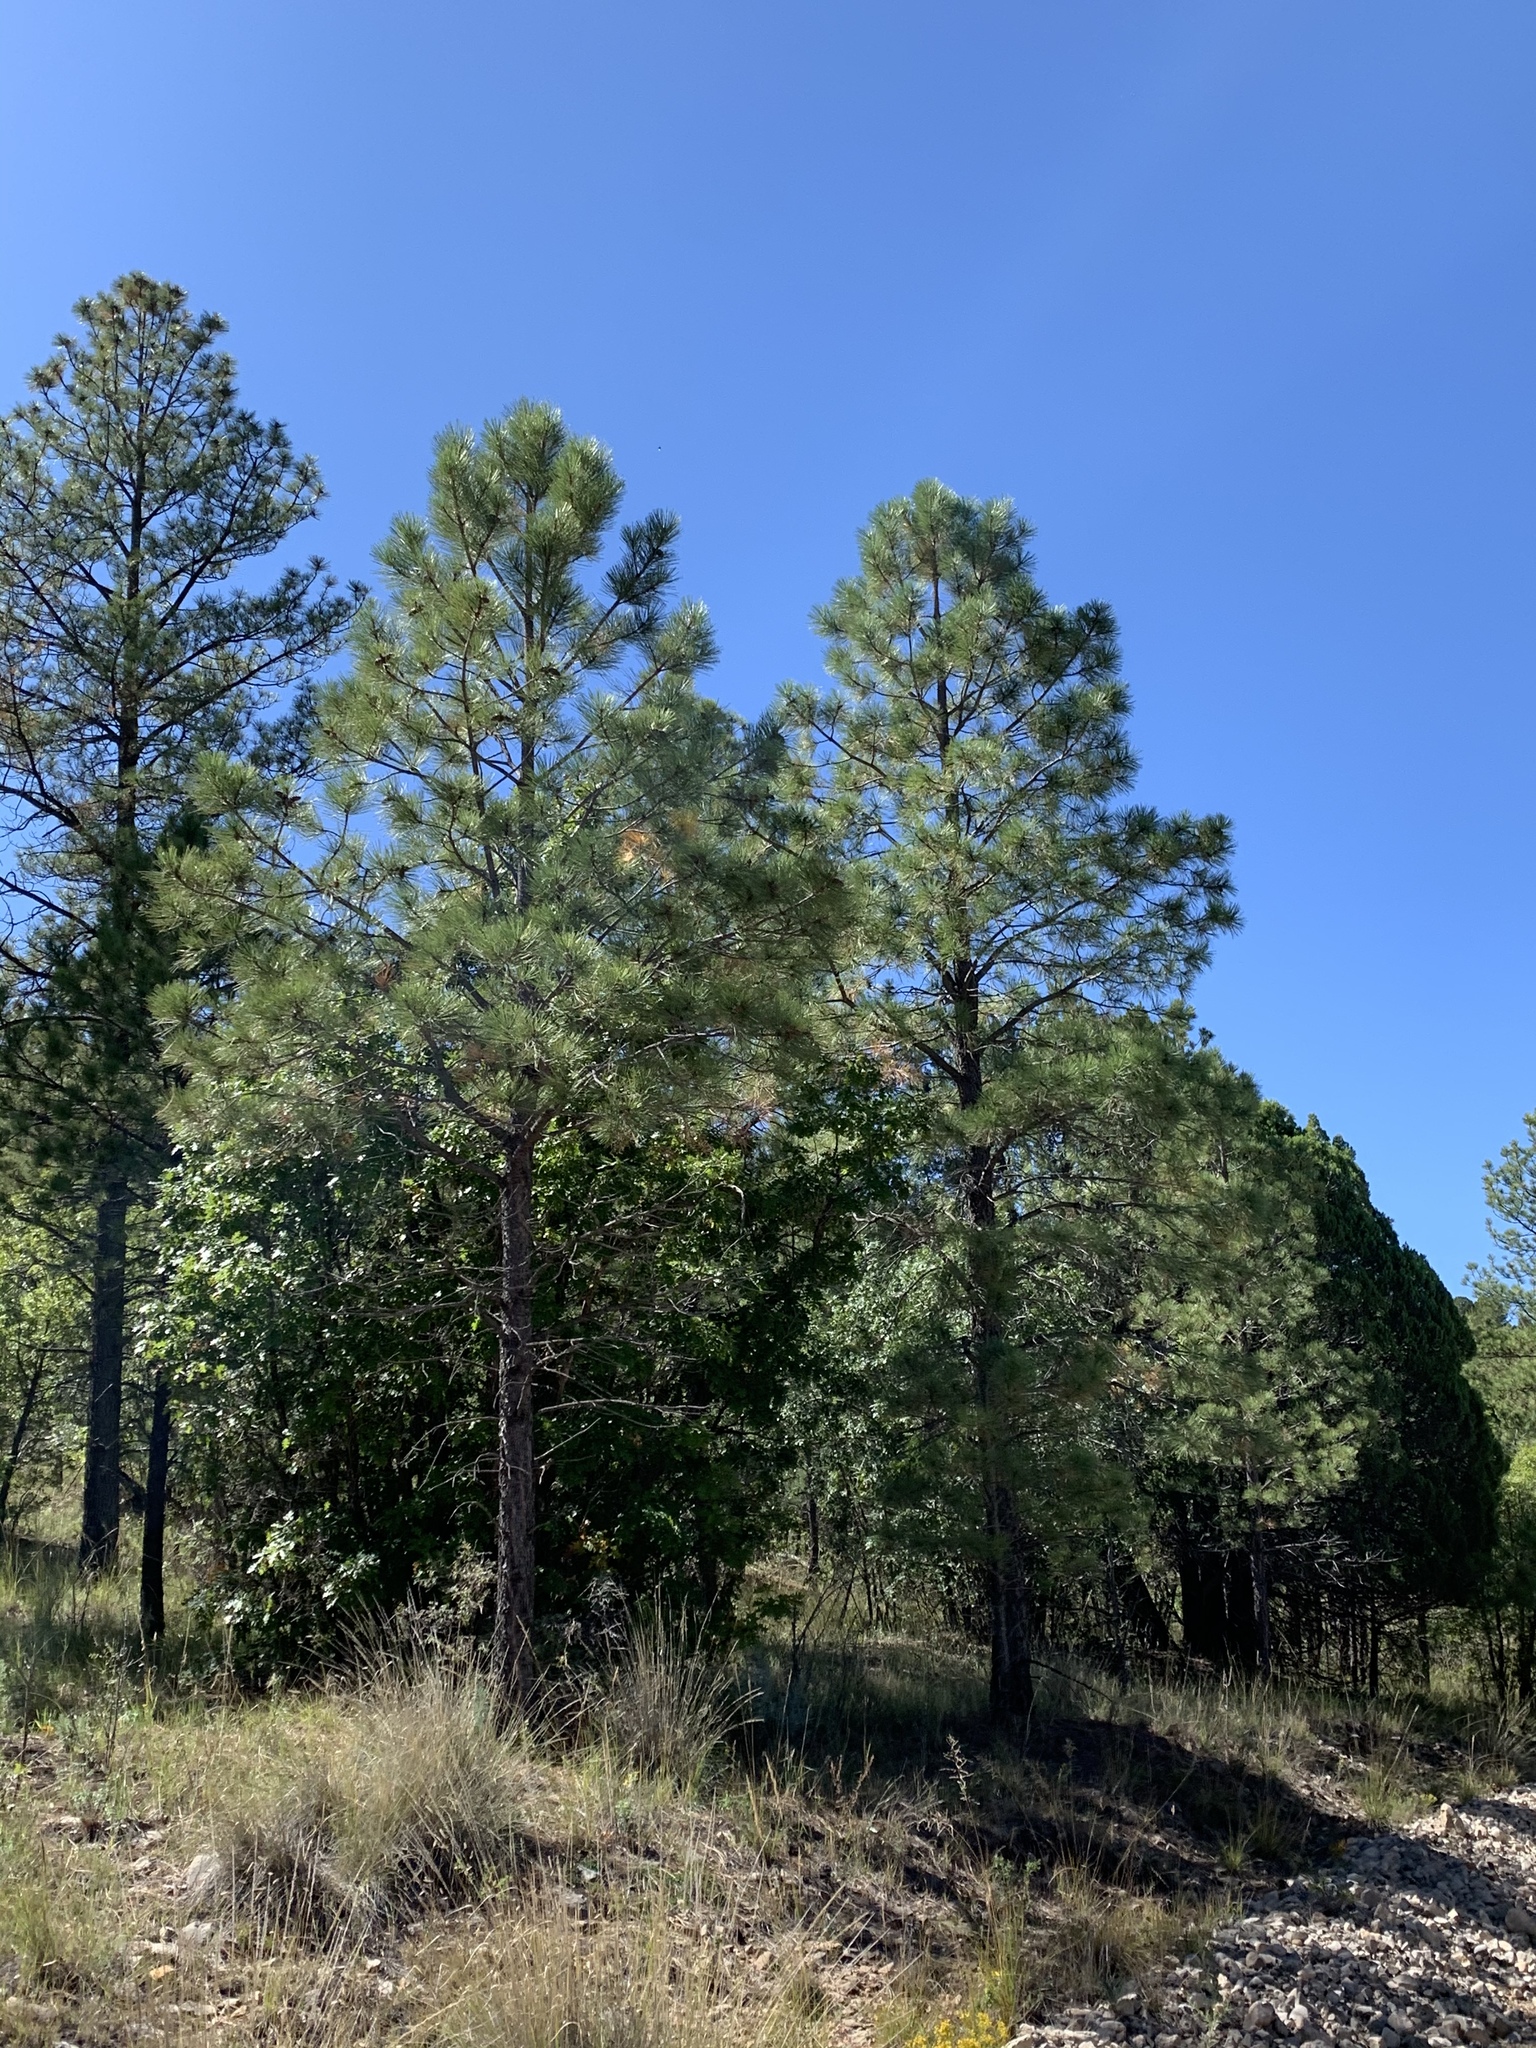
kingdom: Plantae
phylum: Tracheophyta
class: Pinopsida
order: Pinales
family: Pinaceae
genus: Pinus
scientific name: Pinus ponderosa
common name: Western yellow-pine
